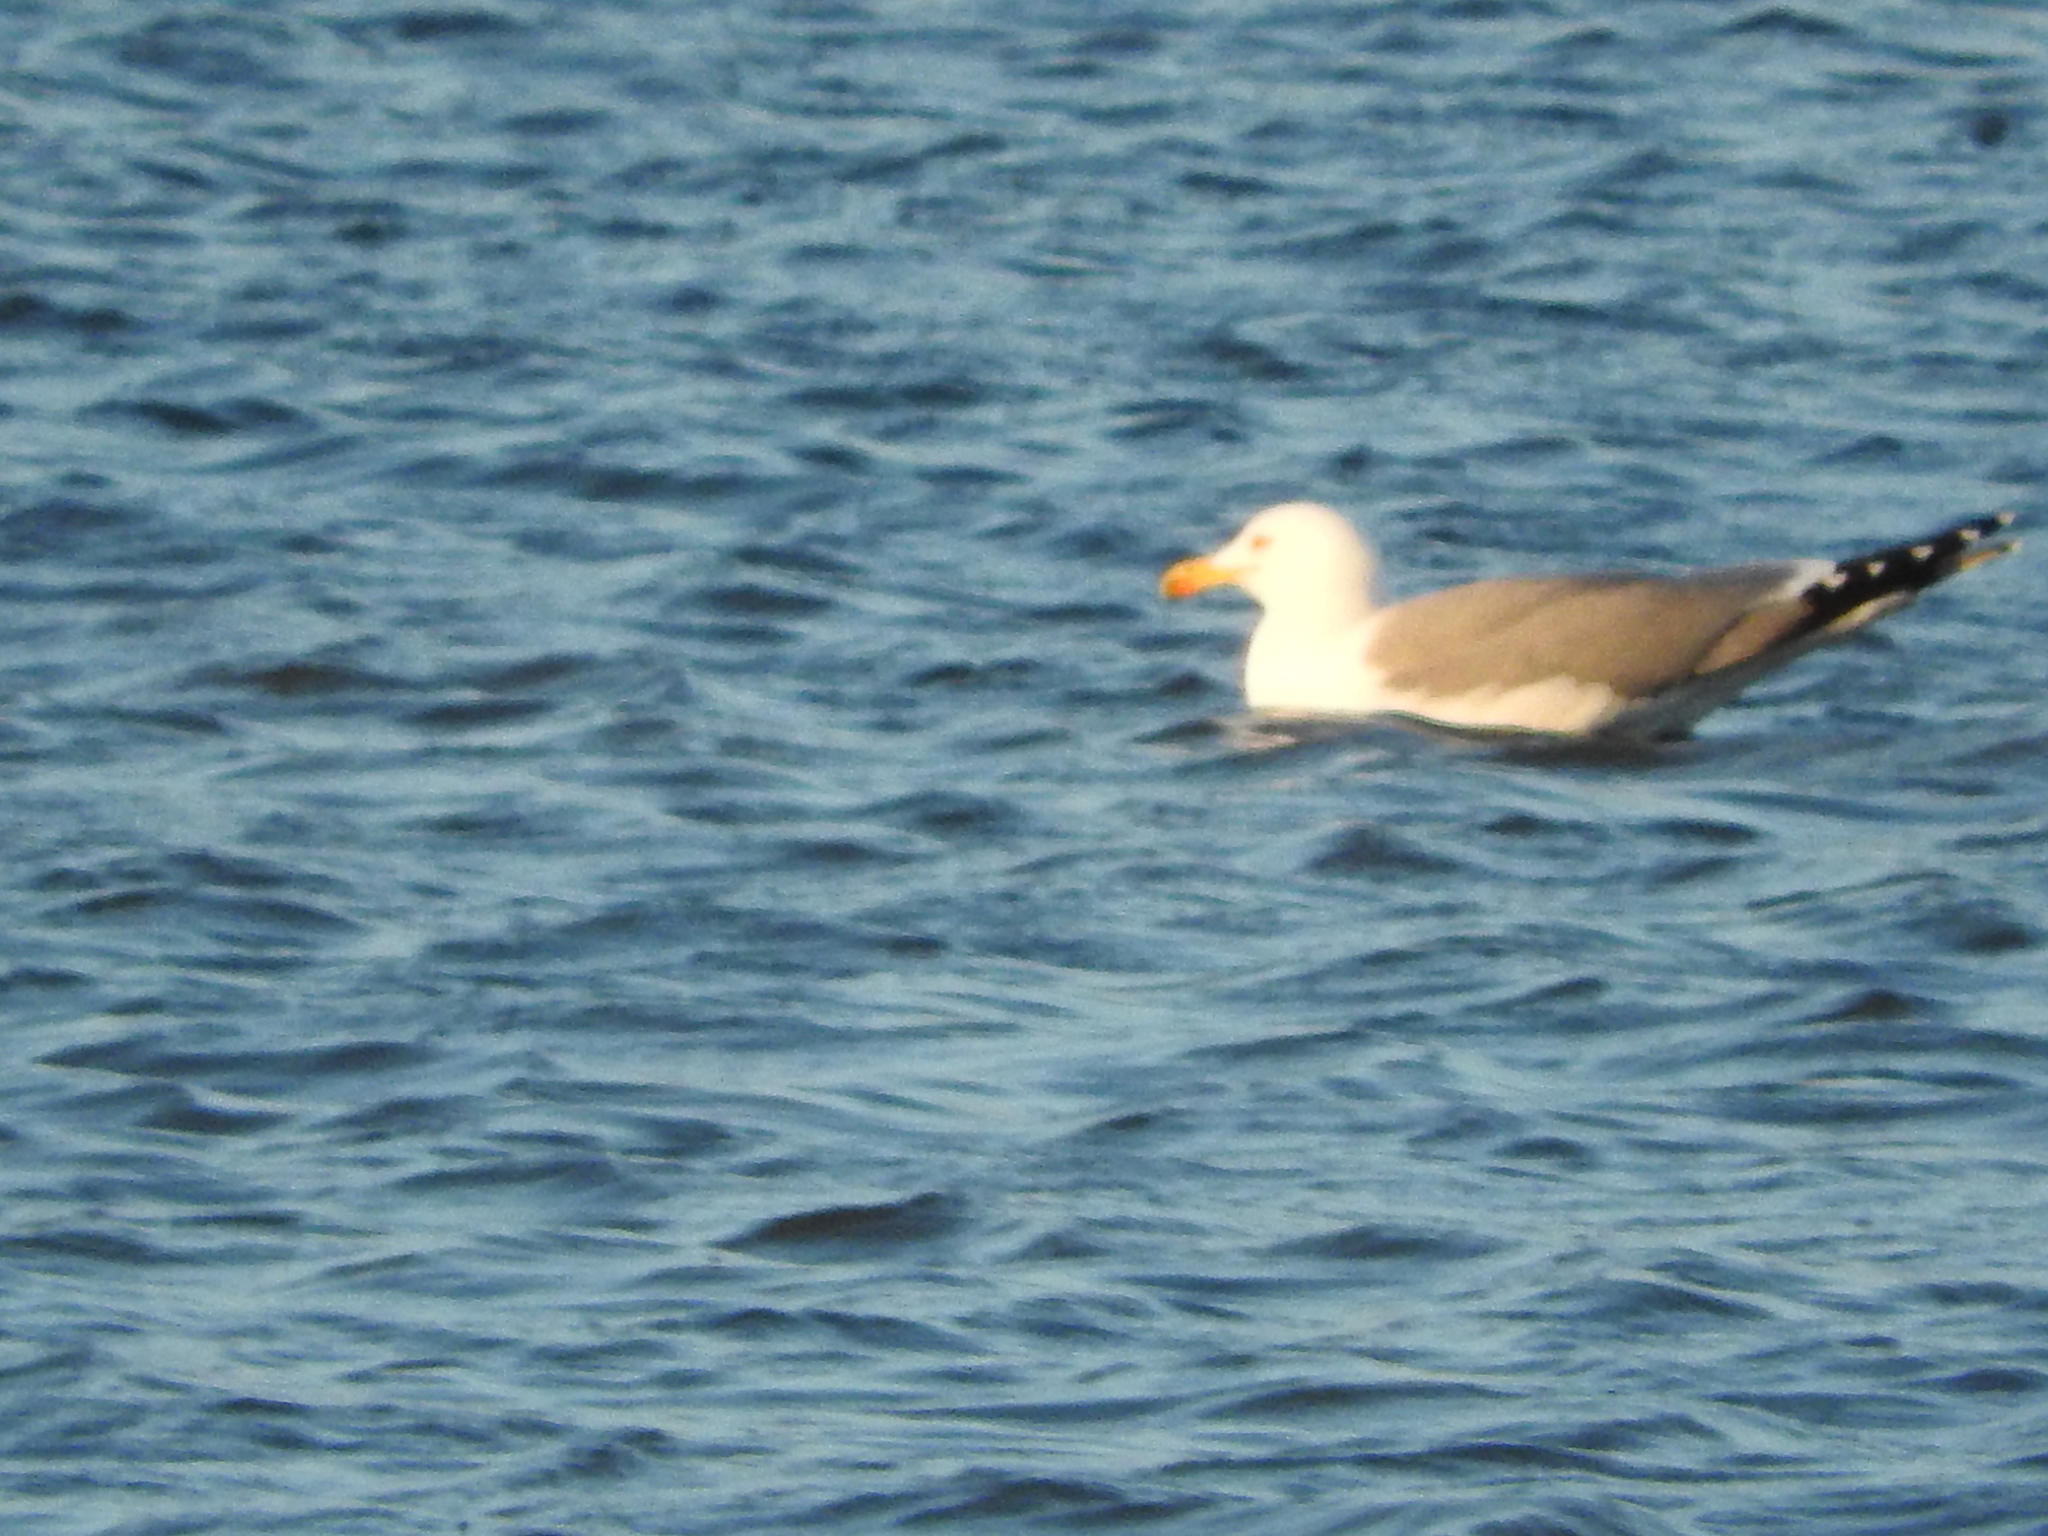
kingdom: Animalia
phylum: Chordata
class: Aves
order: Charadriiformes
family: Laridae
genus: Larus
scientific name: Larus michahellis
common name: Yellow-legged gull
